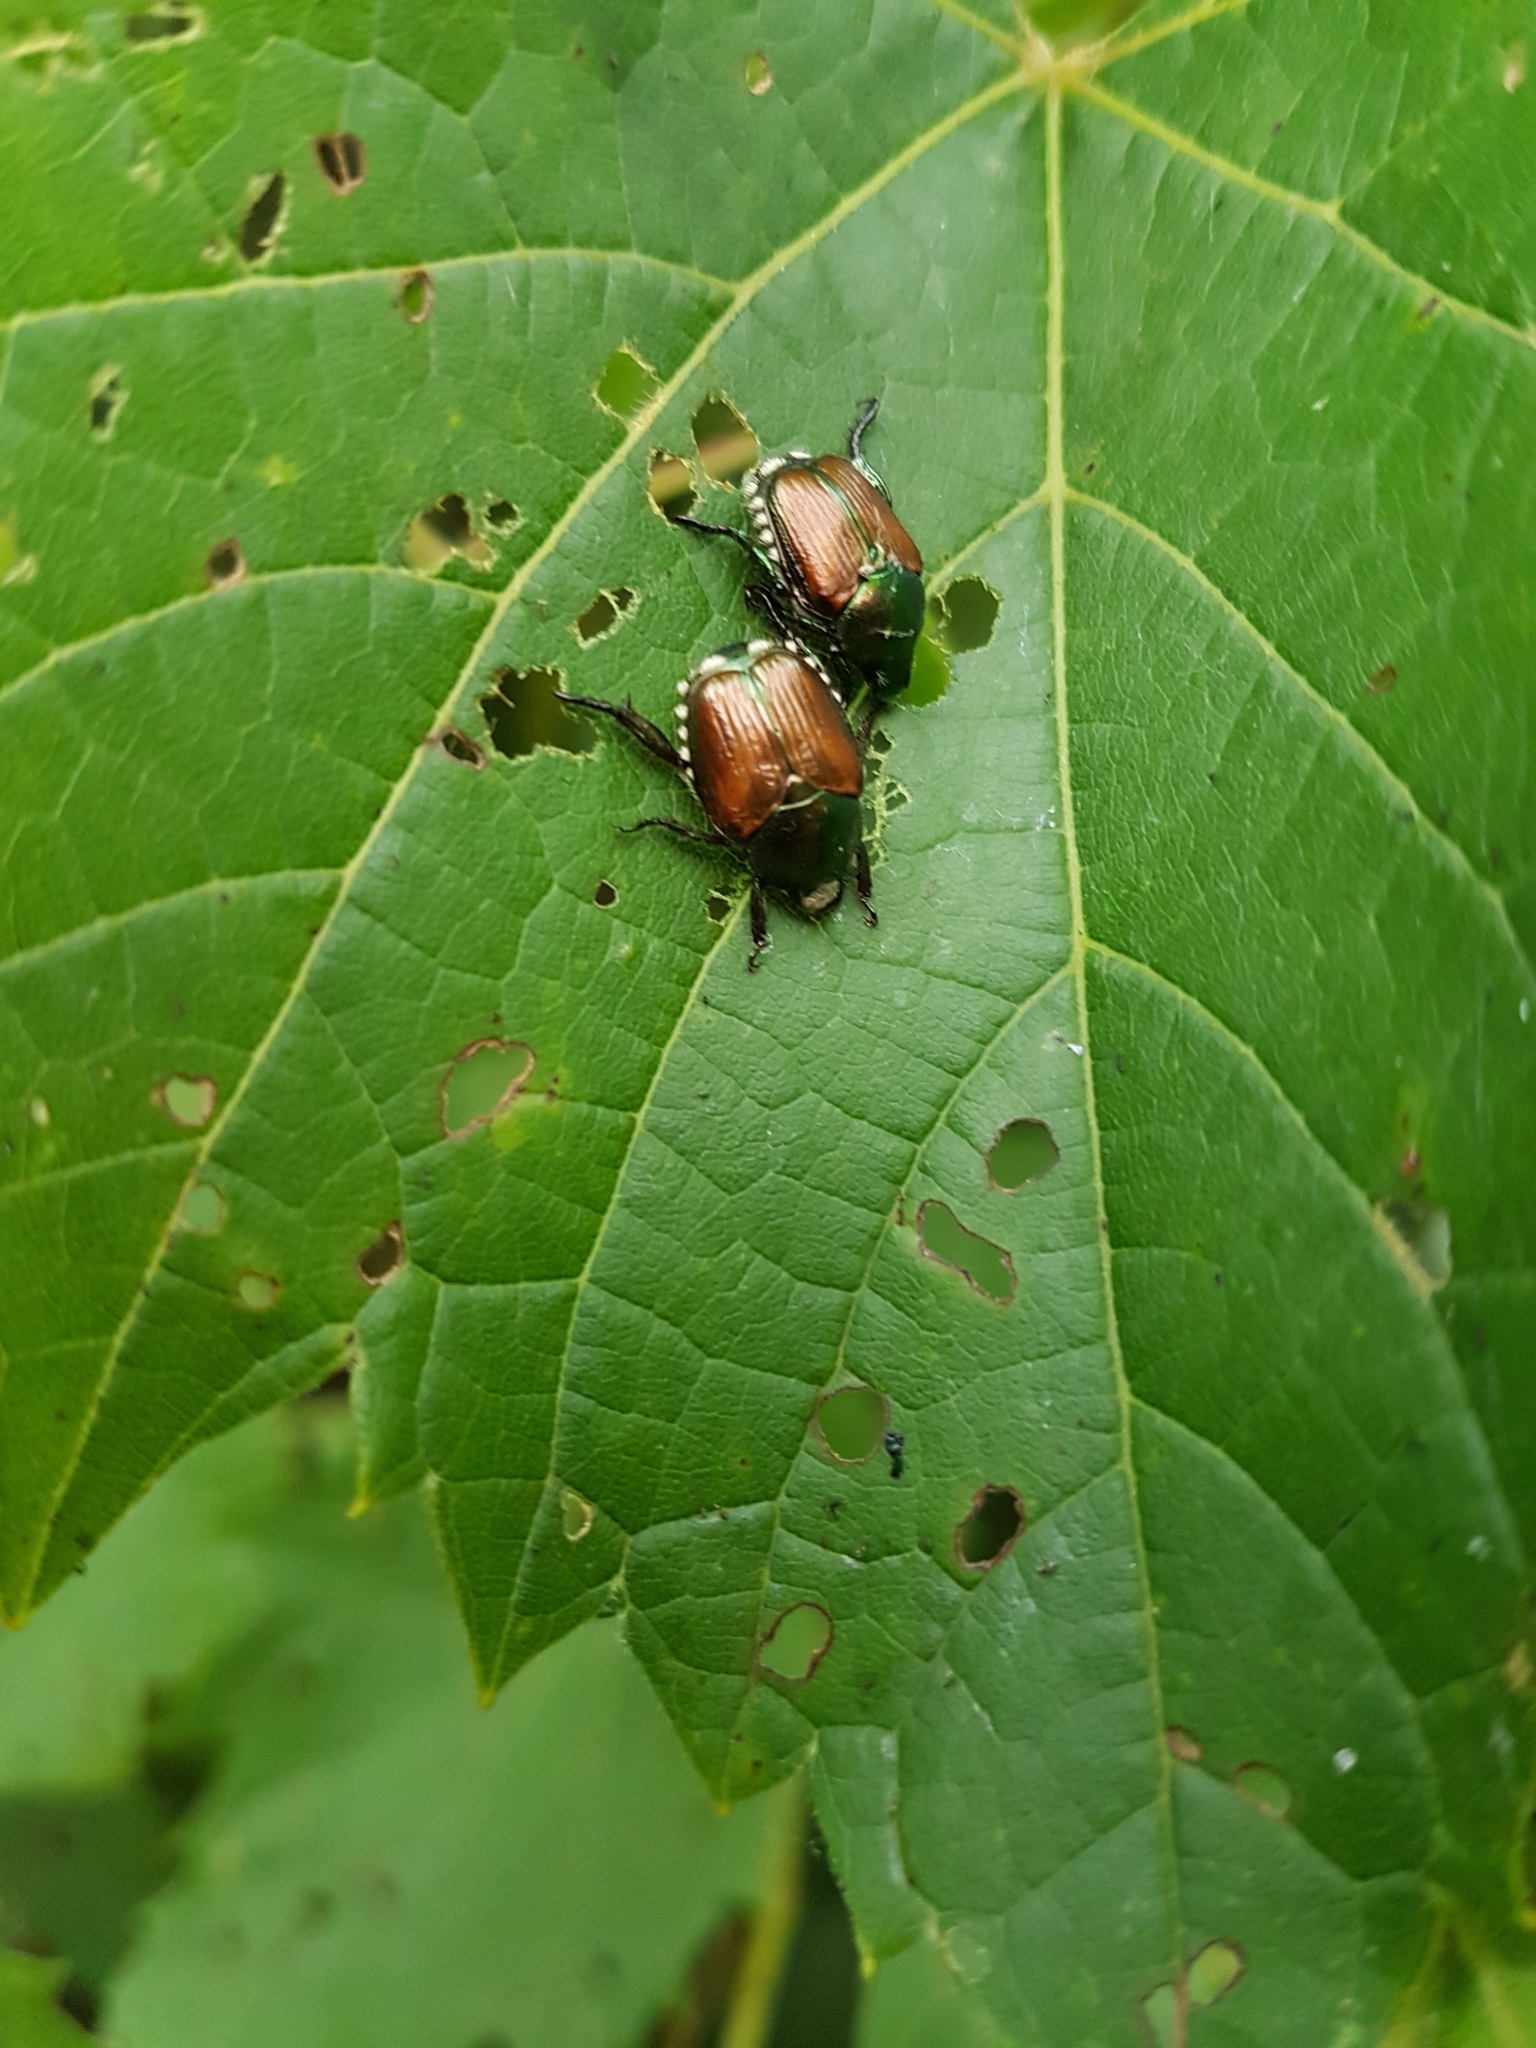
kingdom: Animalia
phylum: Arthropoda
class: Insecta
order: Coleoptera
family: Scarabaeidae
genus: Popillia
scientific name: Popillia japonica
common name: Japanese beetle
